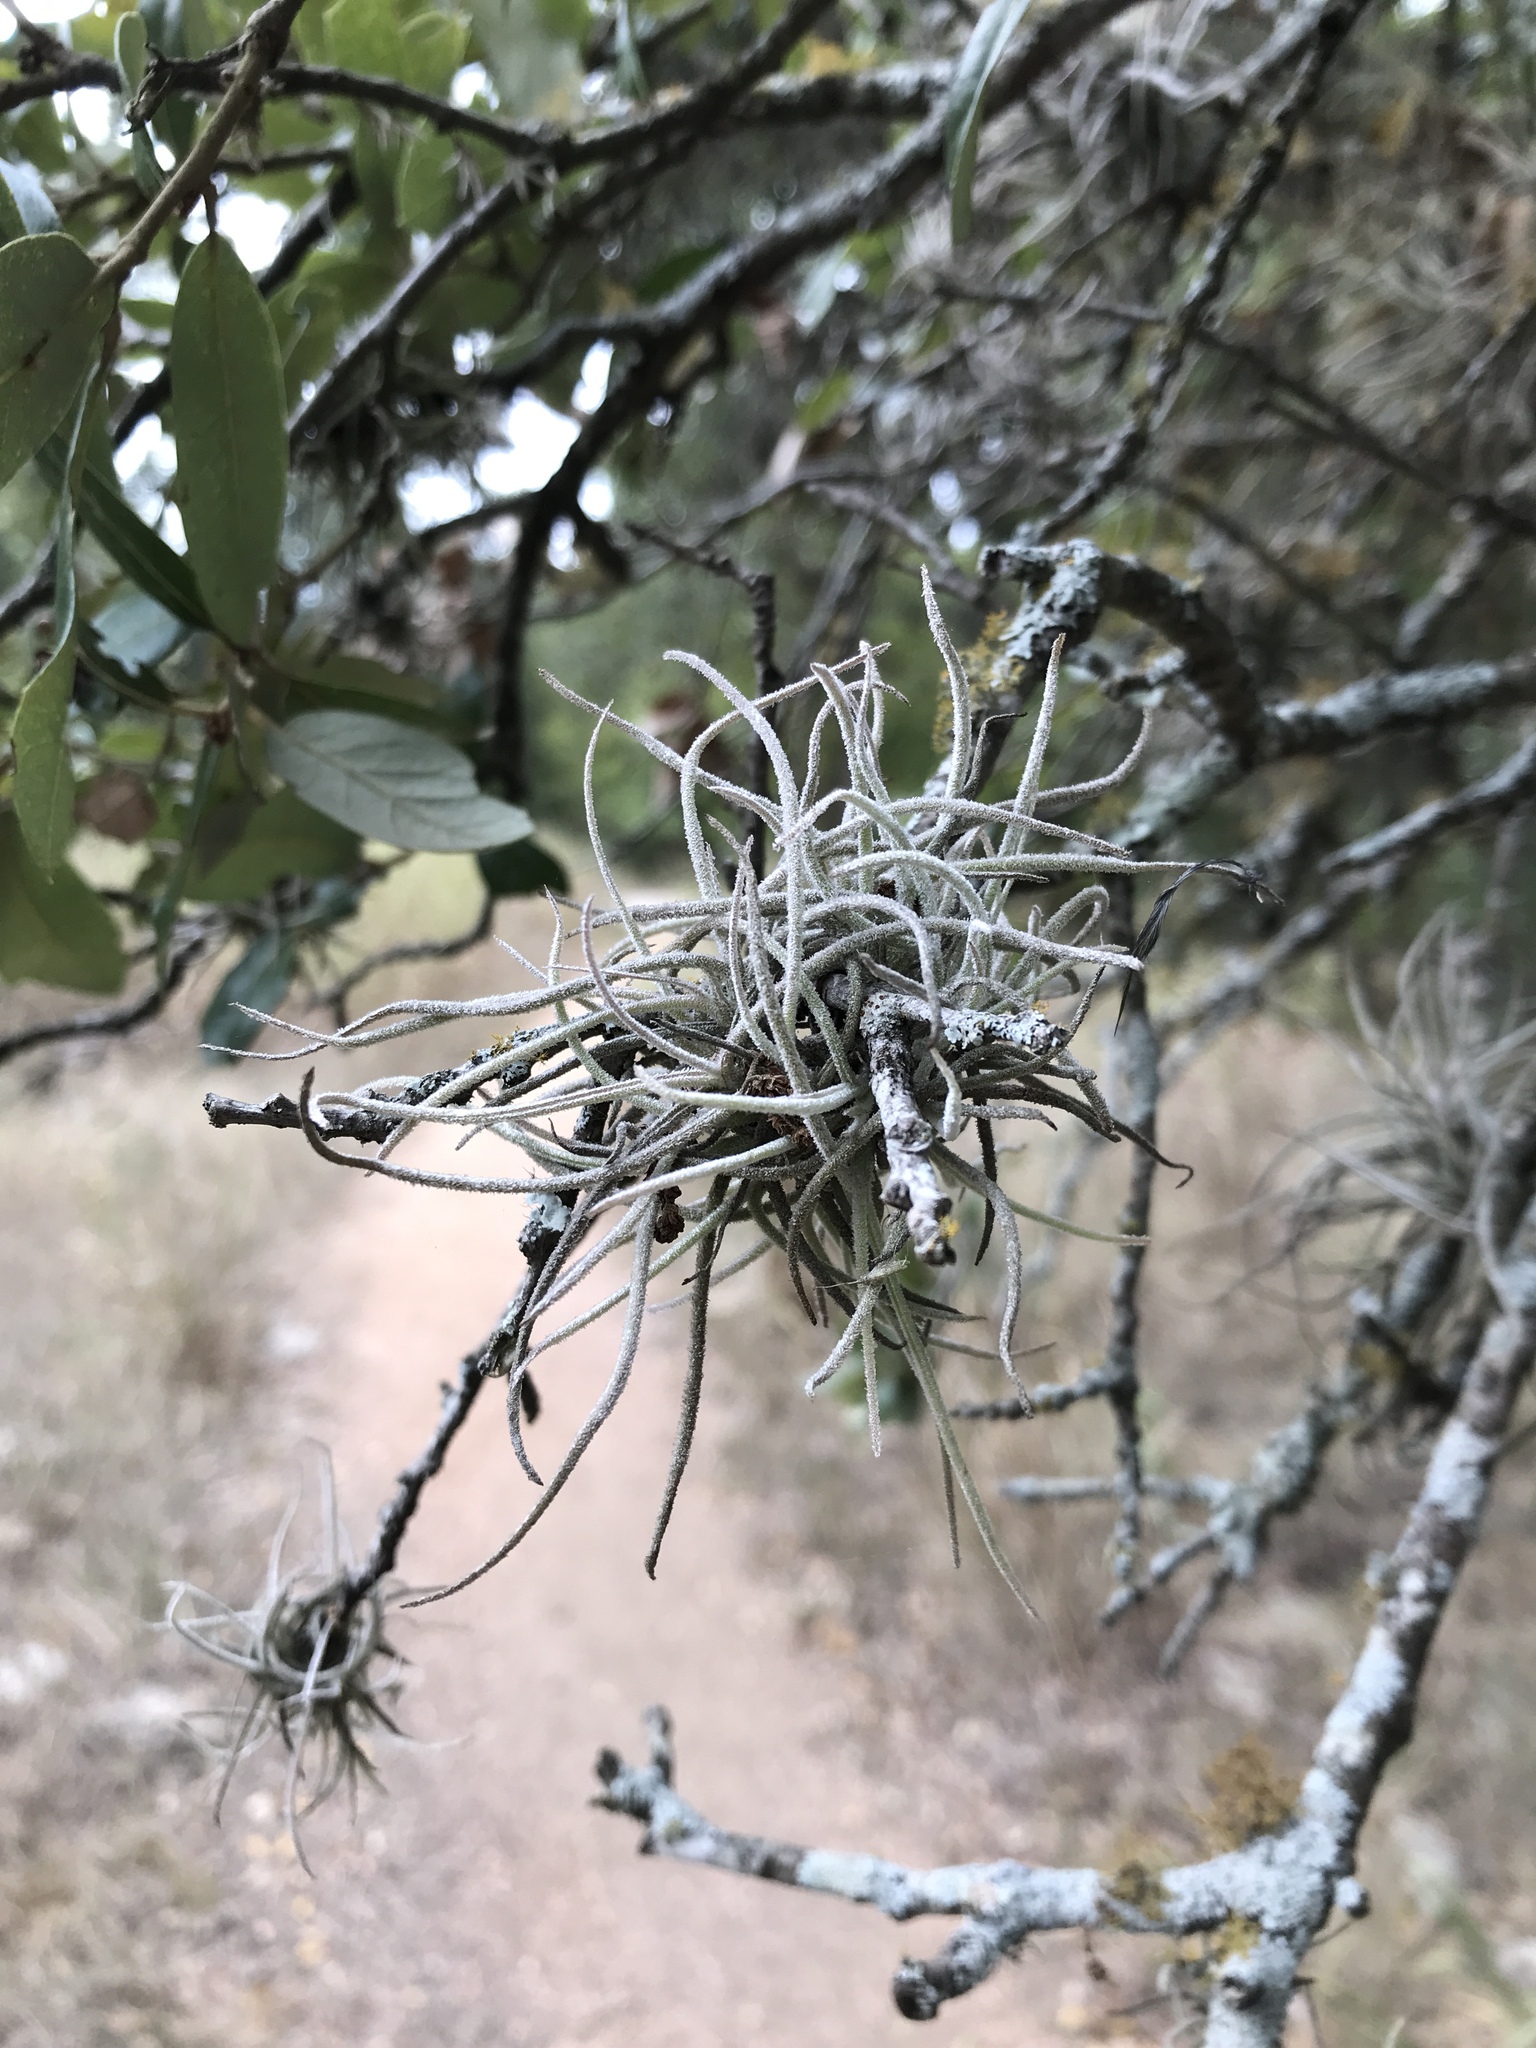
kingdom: Plantae
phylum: Tracheophyta
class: Liliopsida
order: Poales
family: Bromeliaceae
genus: Tillandsia
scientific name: Tillandsia recurvata
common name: Small ballmoss
